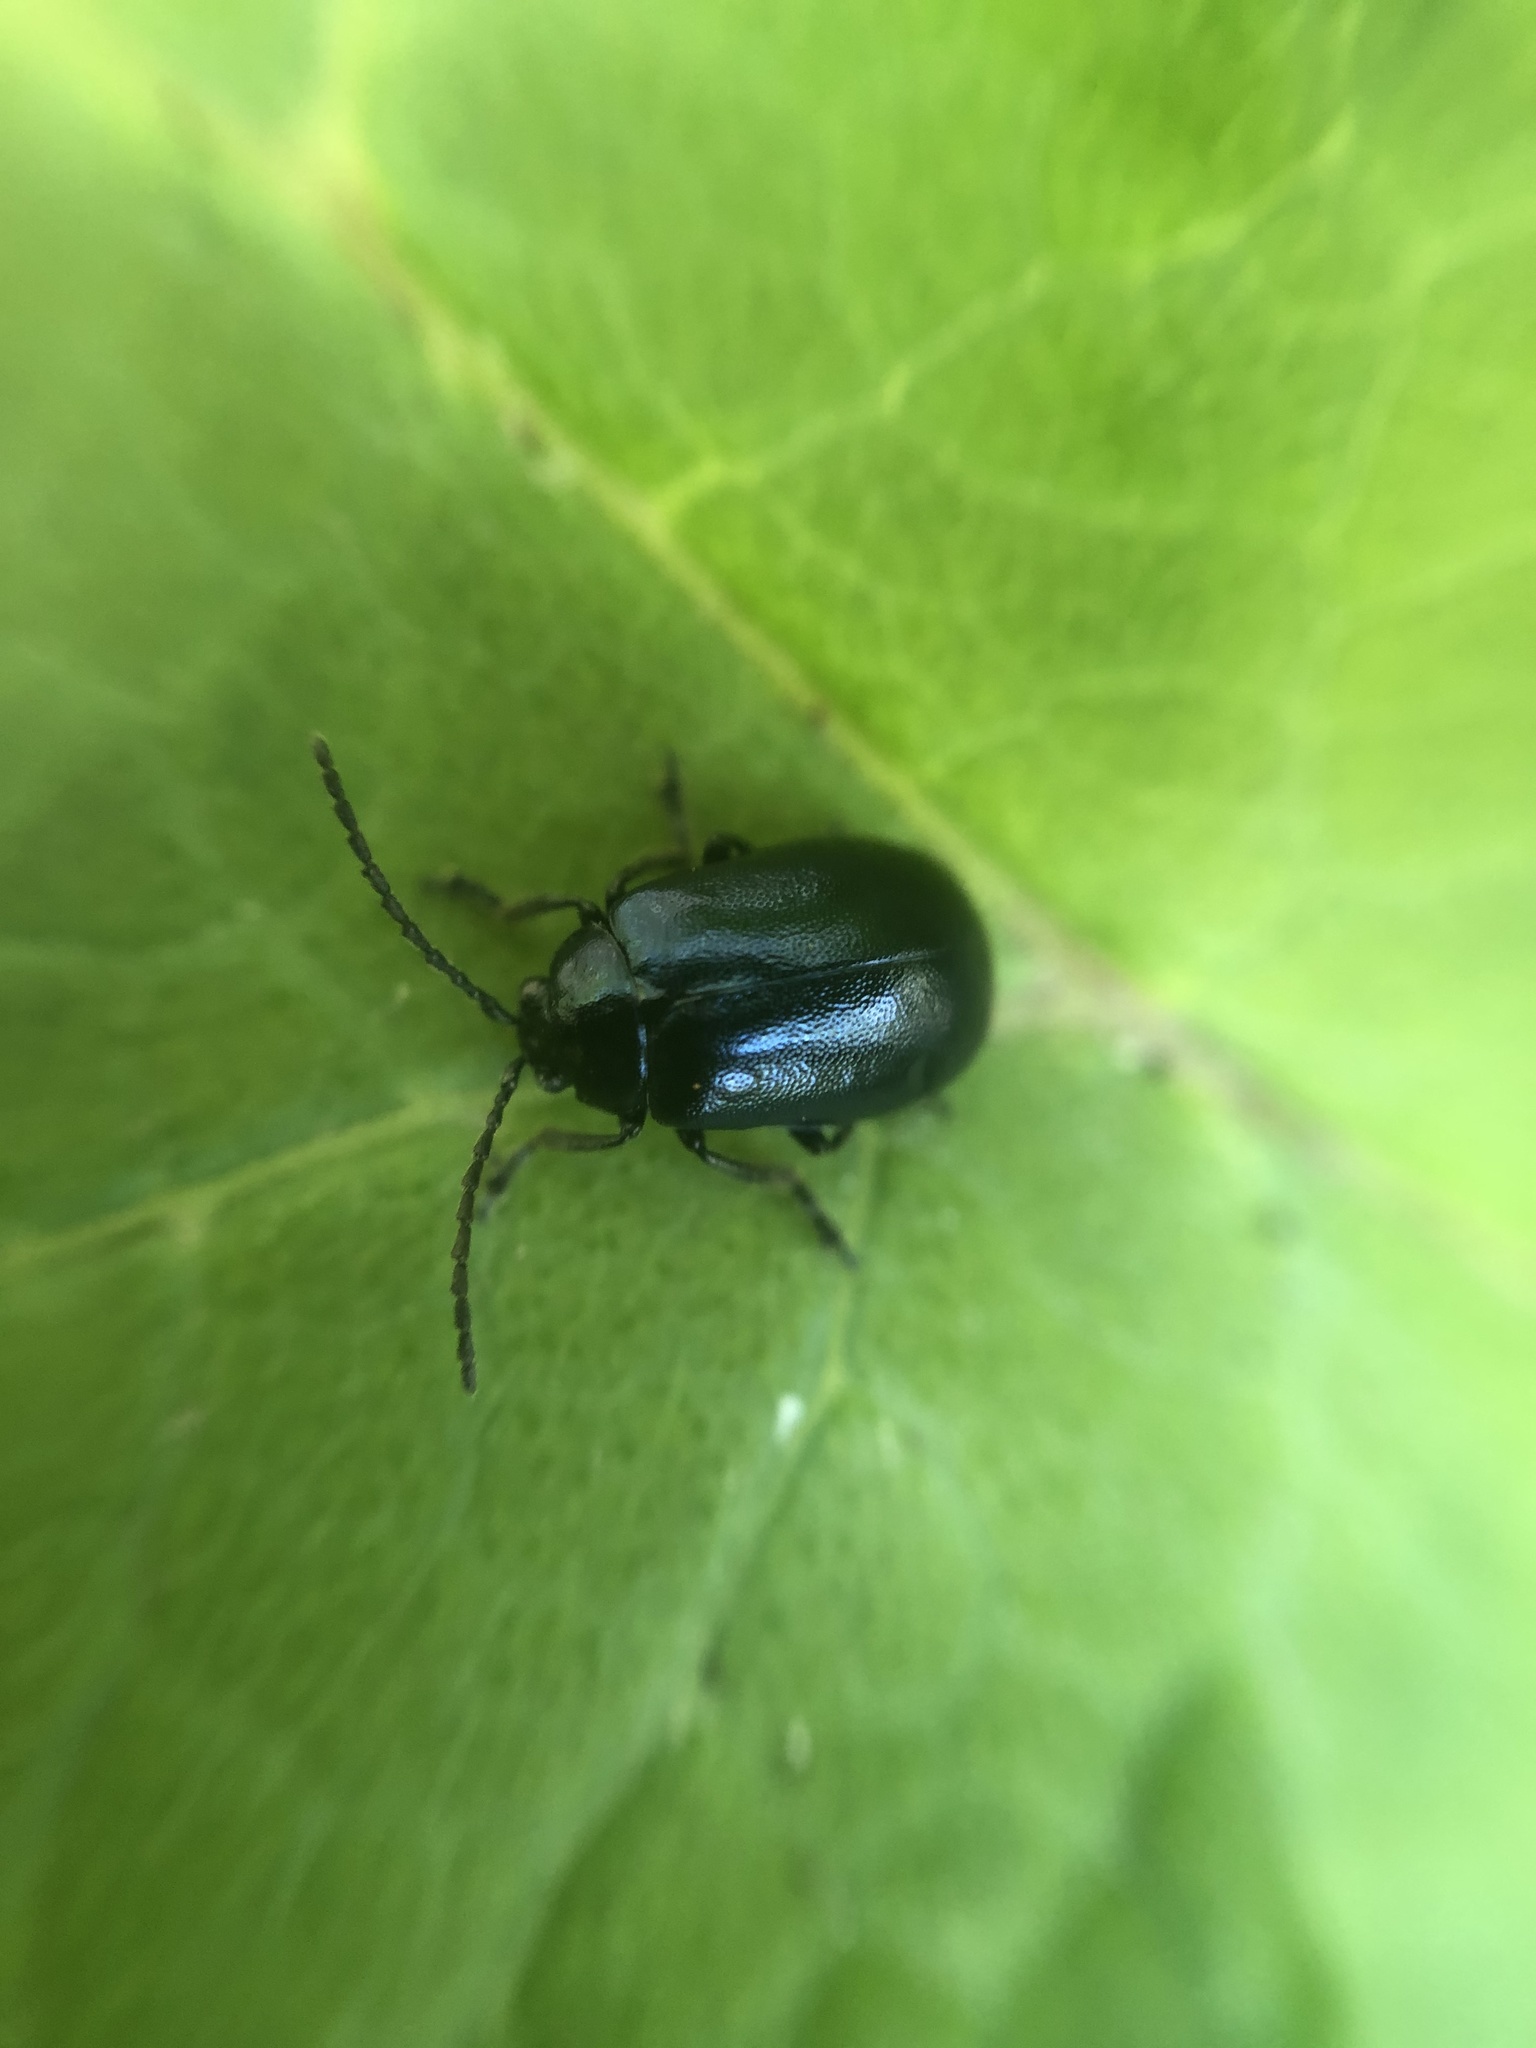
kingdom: Animalia
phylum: Arthropoda
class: Insecta
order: Coleoptera
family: Chrysomelidae
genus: Agelastica
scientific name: Agelastica alni
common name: Alder leaf beetle
